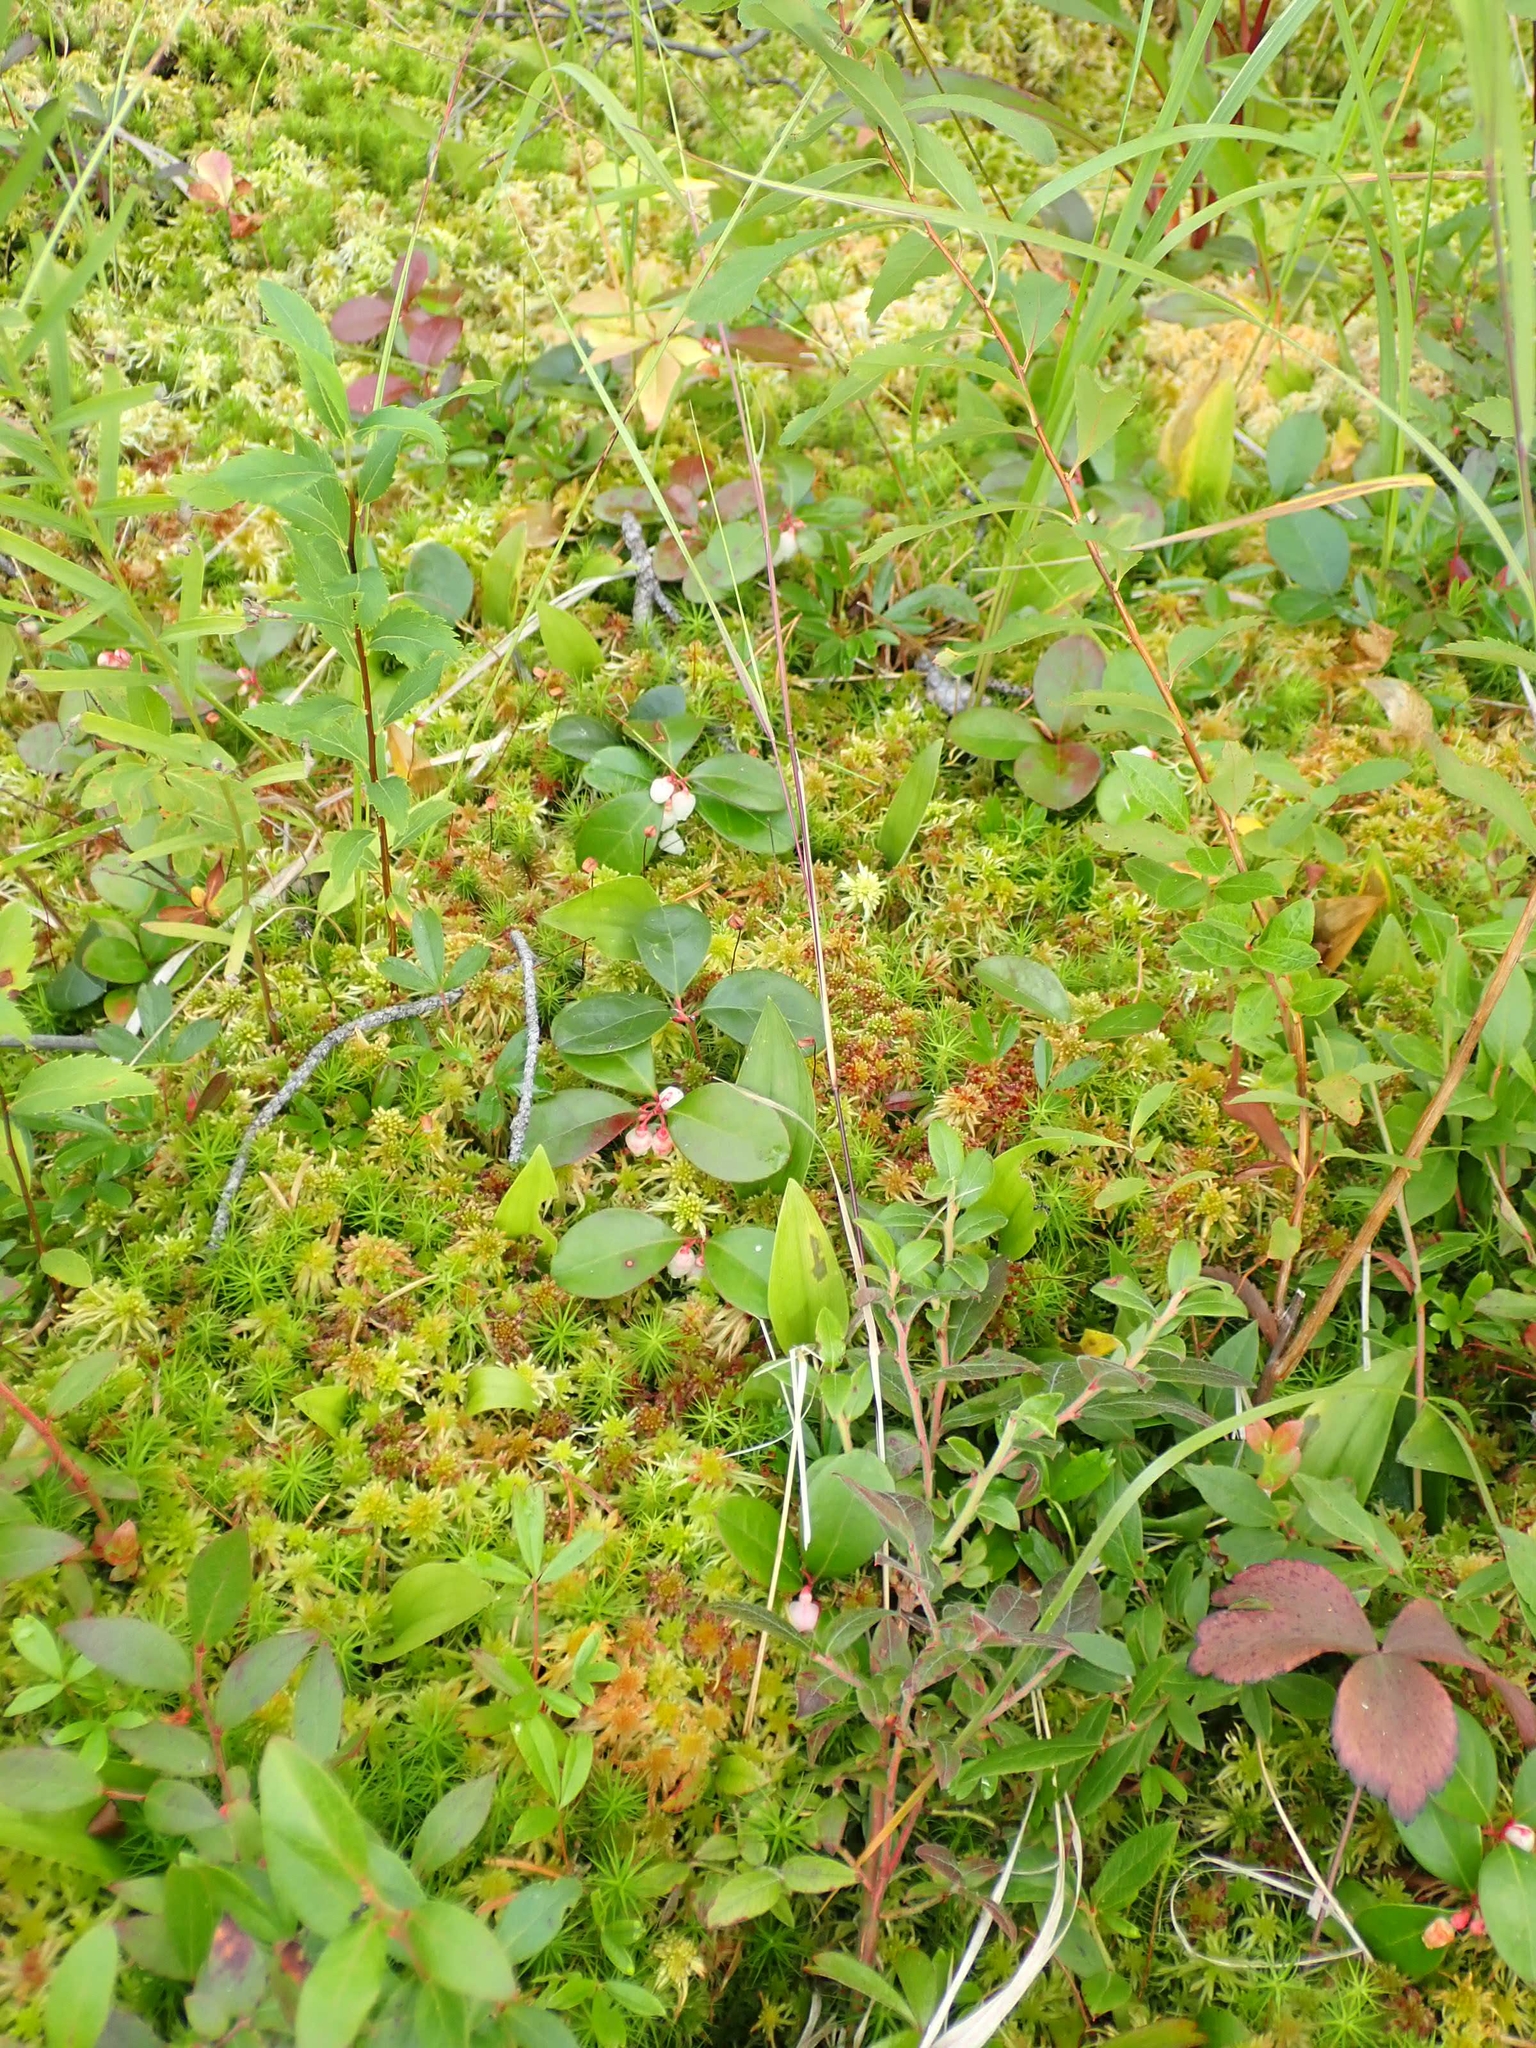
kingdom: Plantae
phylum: Tracheophyta
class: Magnoliopsida
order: Ericales
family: Ericaceae
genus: Gaultheria
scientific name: Gaultheria procumbens
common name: Checkerberry
